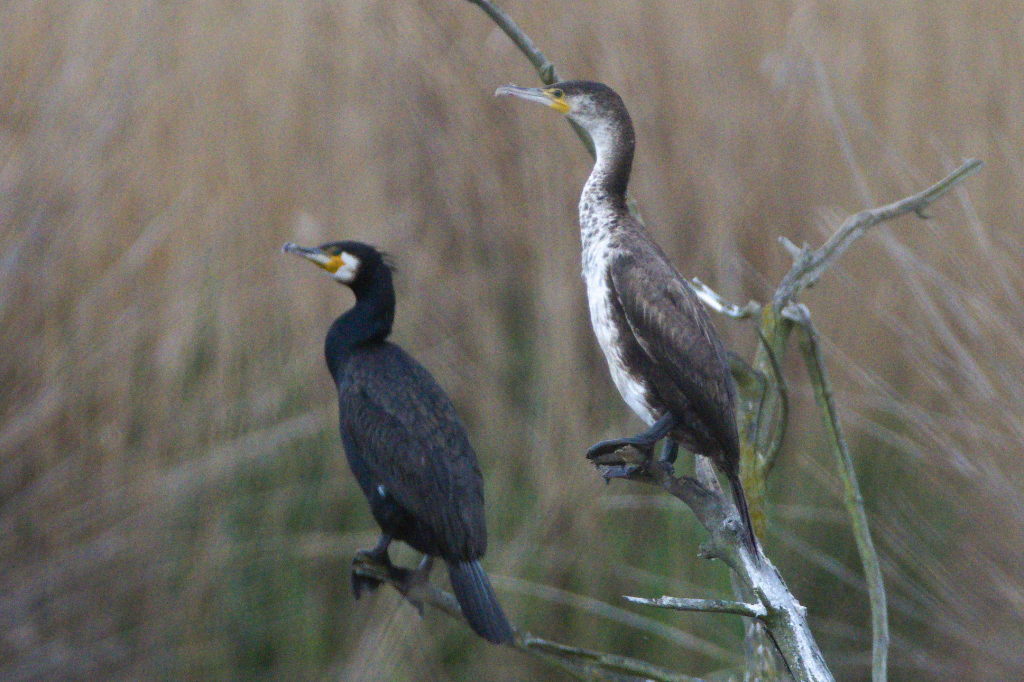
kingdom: Animalia
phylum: Chordata
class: Aves
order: Suliformes
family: Phalacrocoracidae
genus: Phalacrocorax
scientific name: Phalacrocorax carbo
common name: Great cormorant
